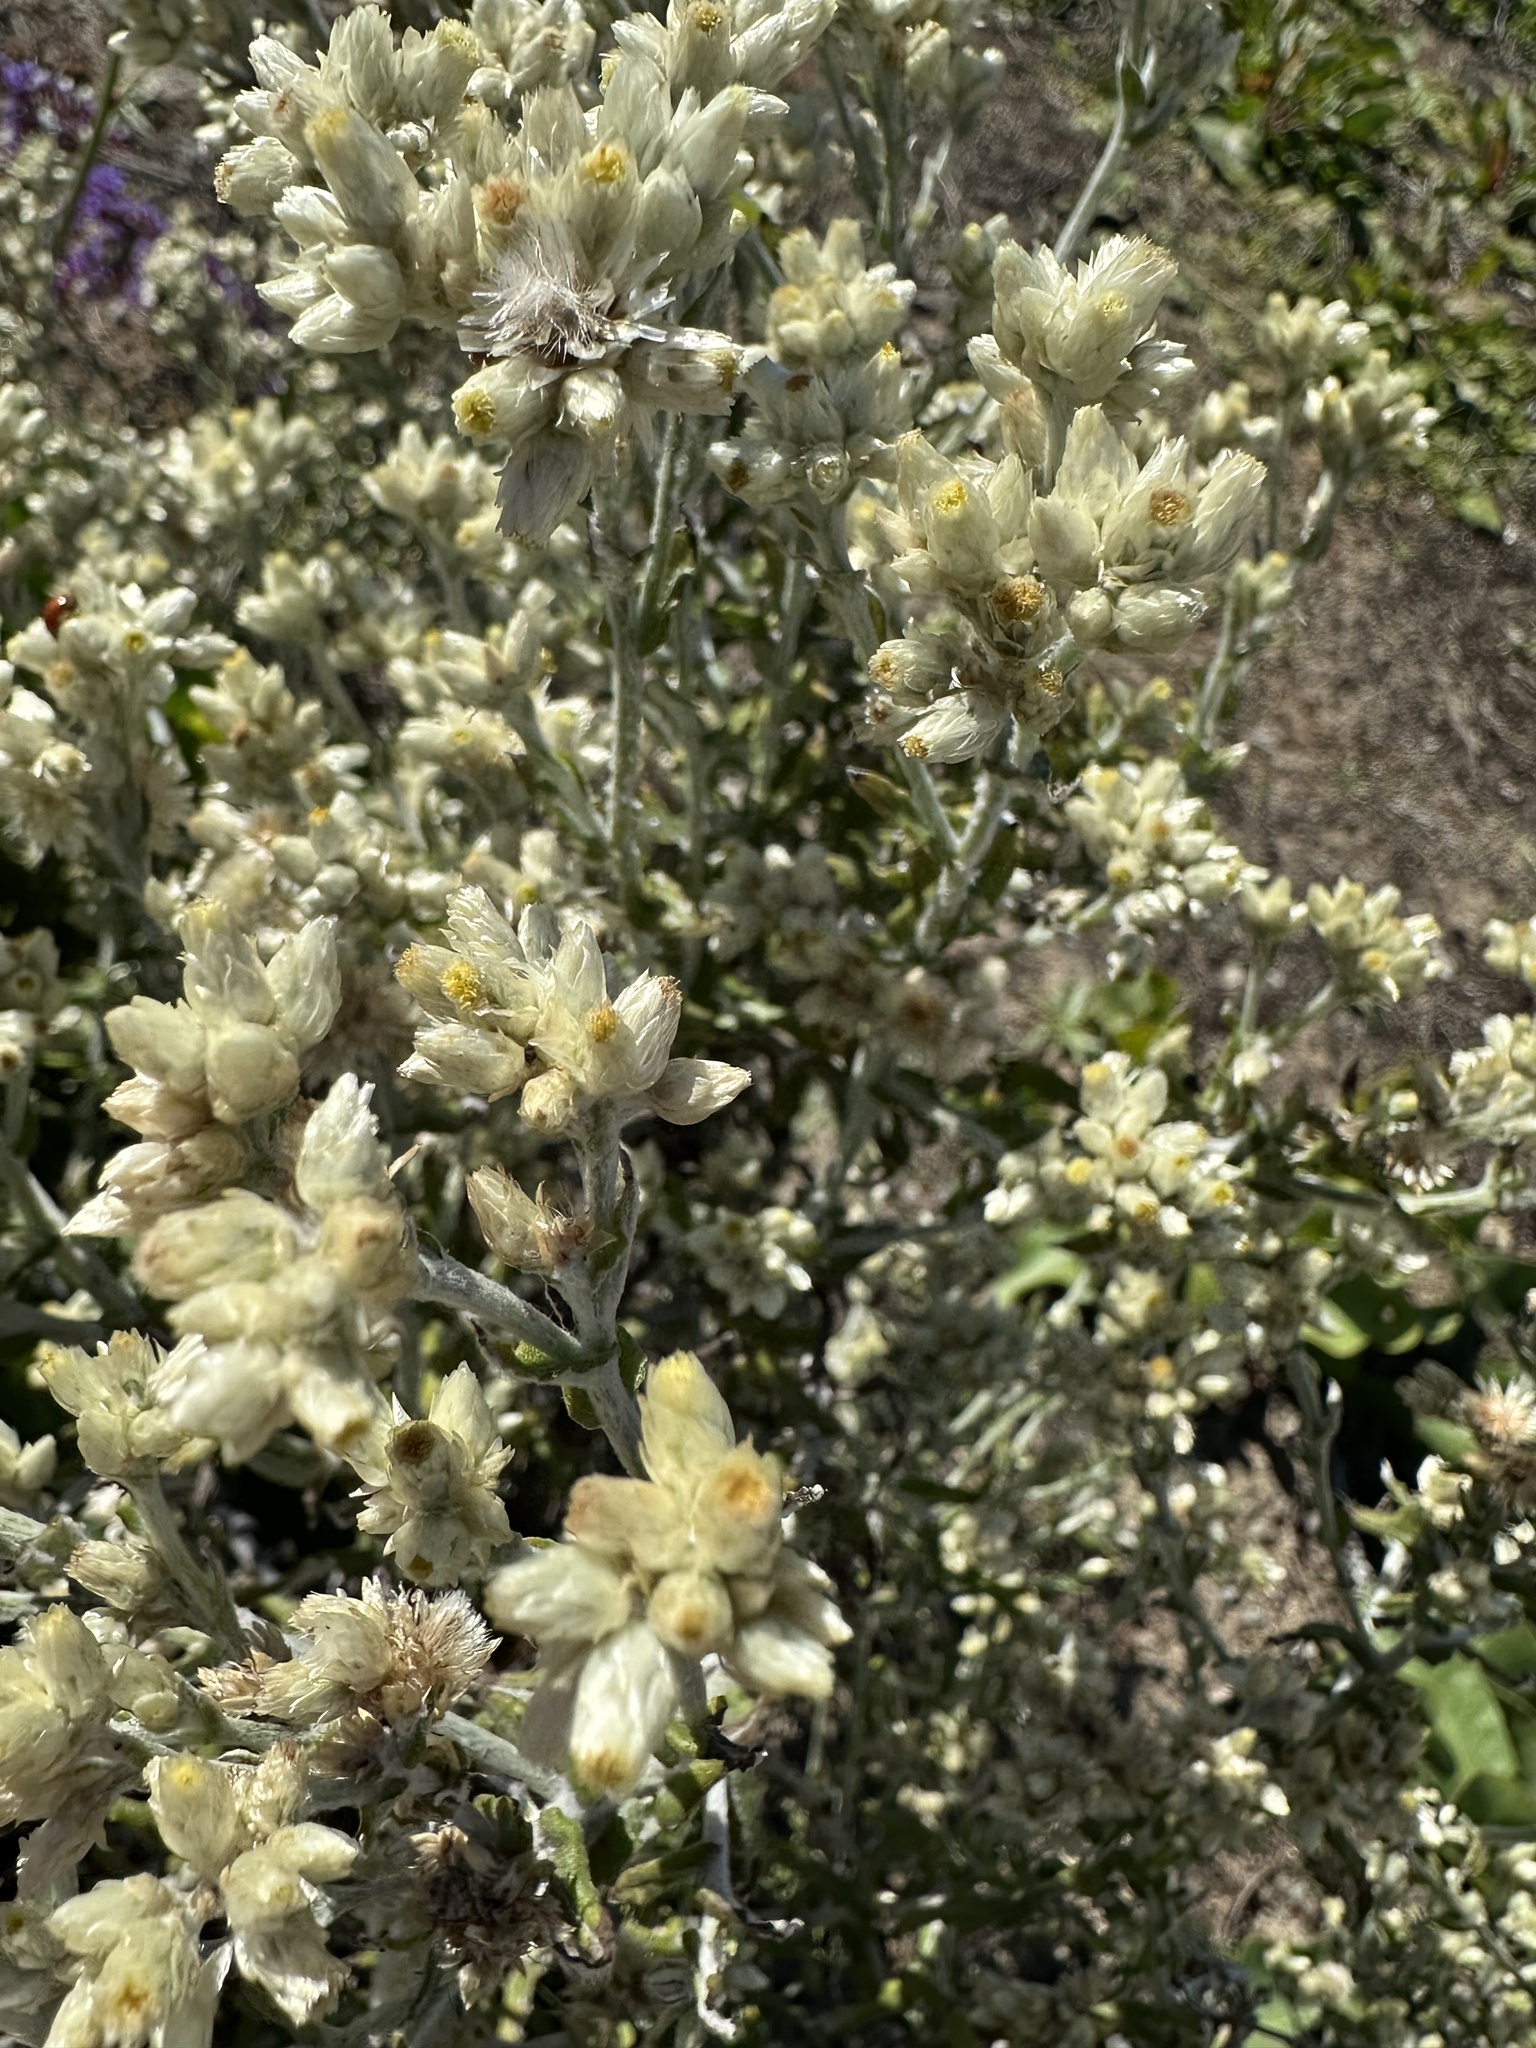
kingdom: Plantae
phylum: Tracheophyta
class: Magnoliopsida
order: Asterales
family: Asteraceae
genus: Pseudognaphalium
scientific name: Pseudognaphalium biolettii
